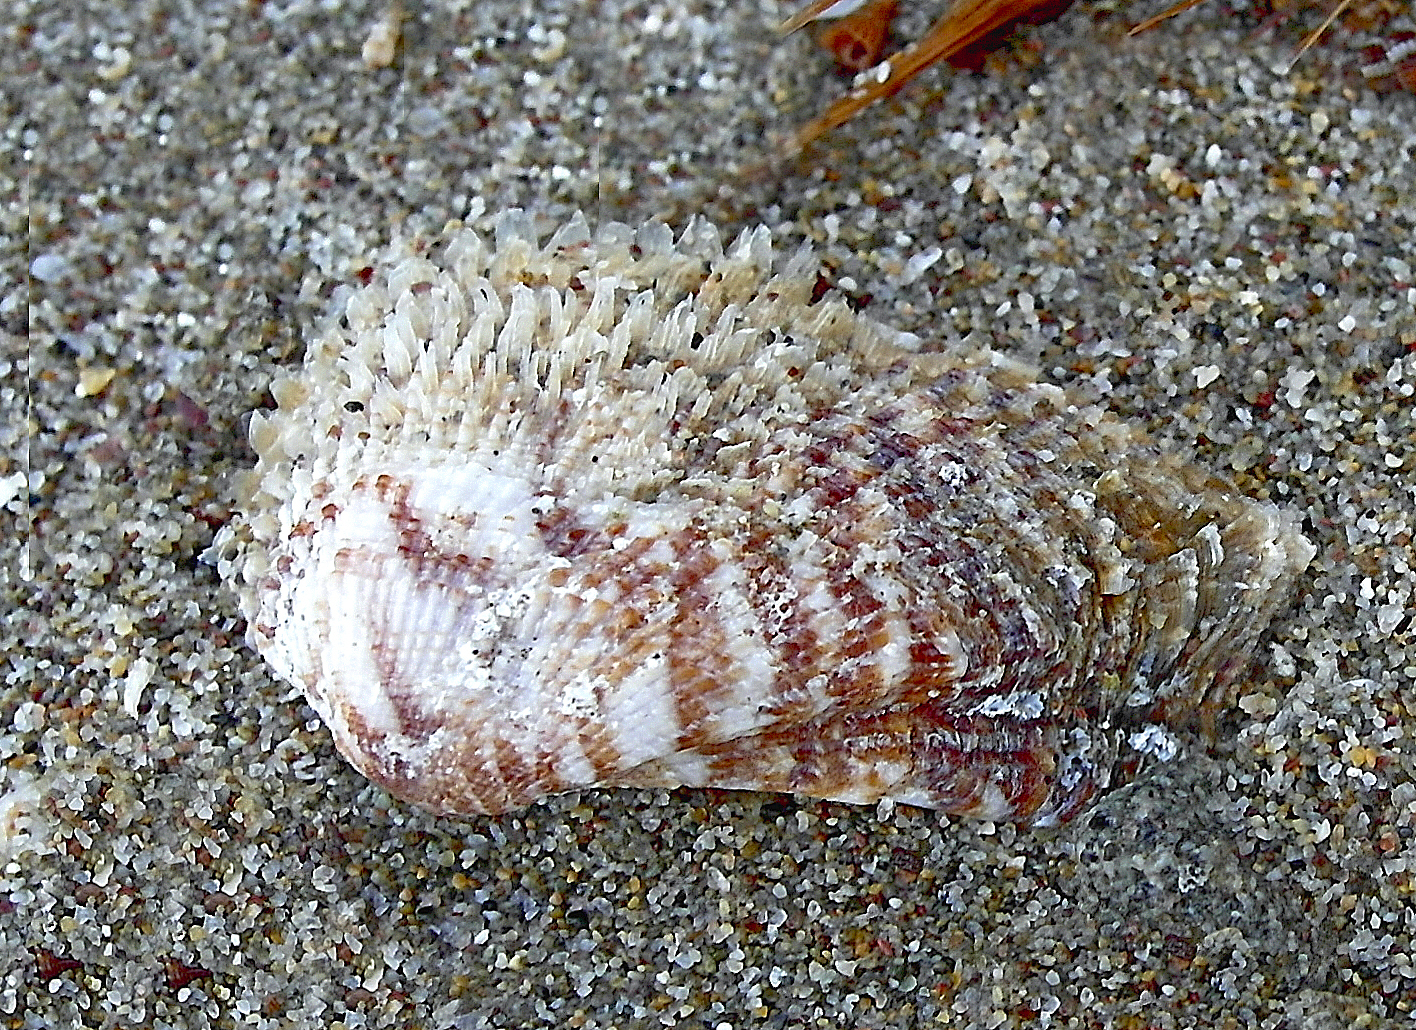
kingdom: Animalia
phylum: Mollusca
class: Bivalvia
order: Arcida
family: Arcidae
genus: Arca
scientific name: Arca noae
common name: Noah's arch
